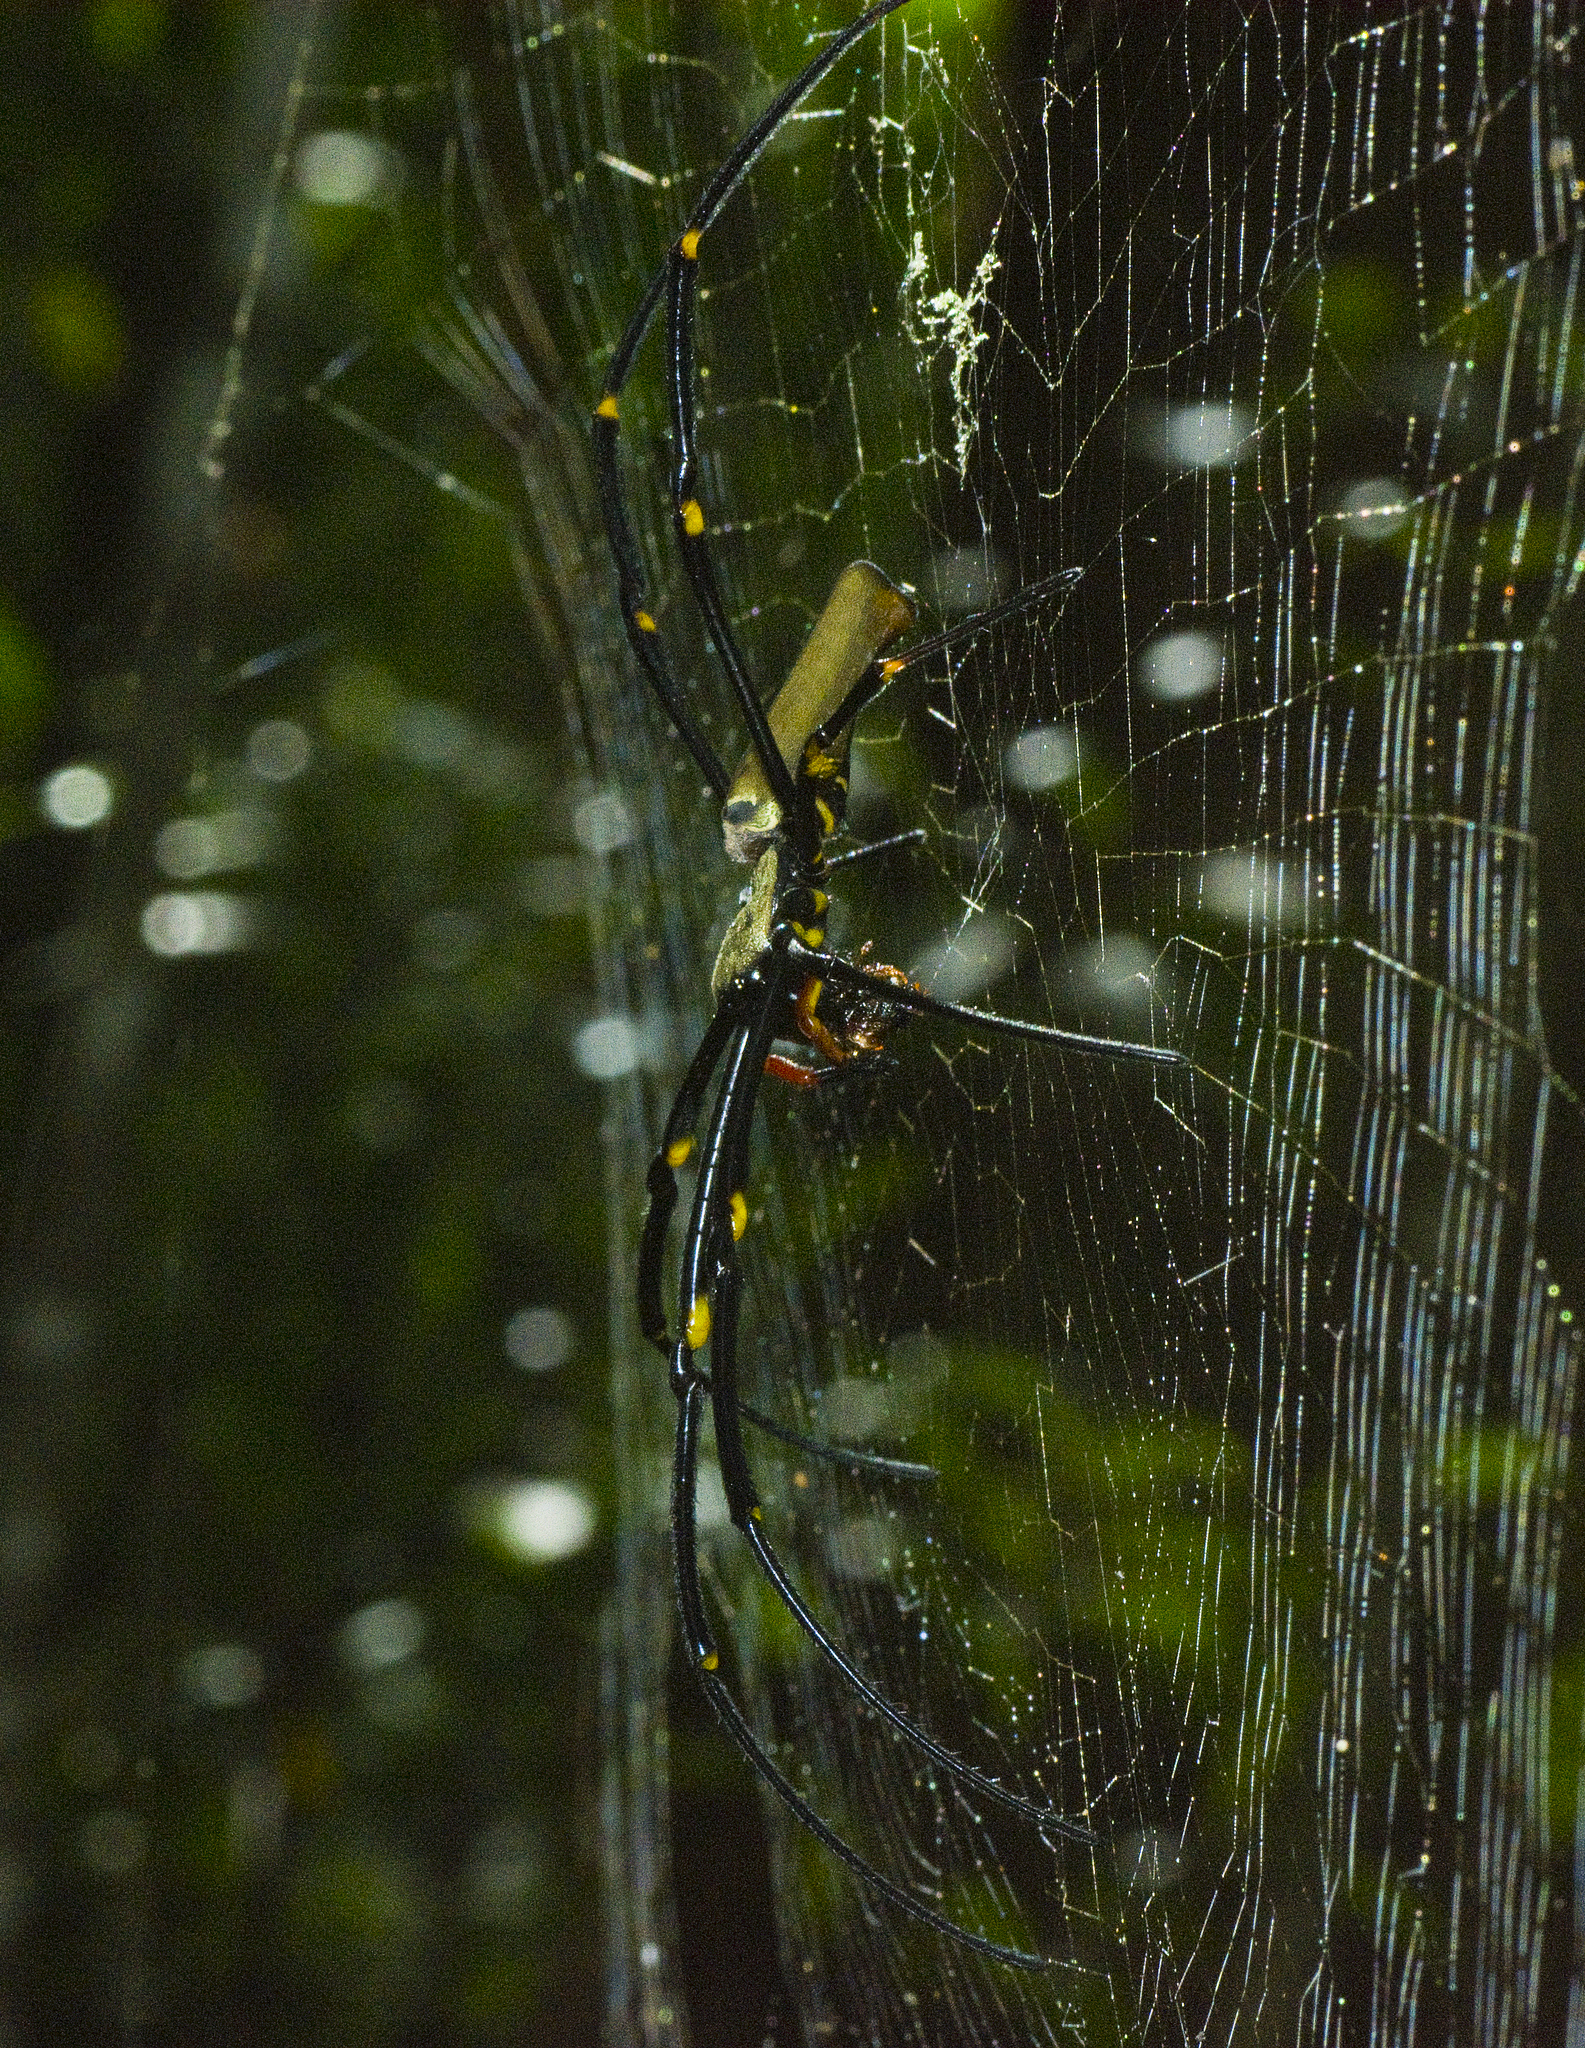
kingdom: Animalia
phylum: Arthropoda
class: Arachnida
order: Araneae
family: Araneidae
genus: Nephila
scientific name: Nephila pilipes
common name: Giant golden orb weaver
